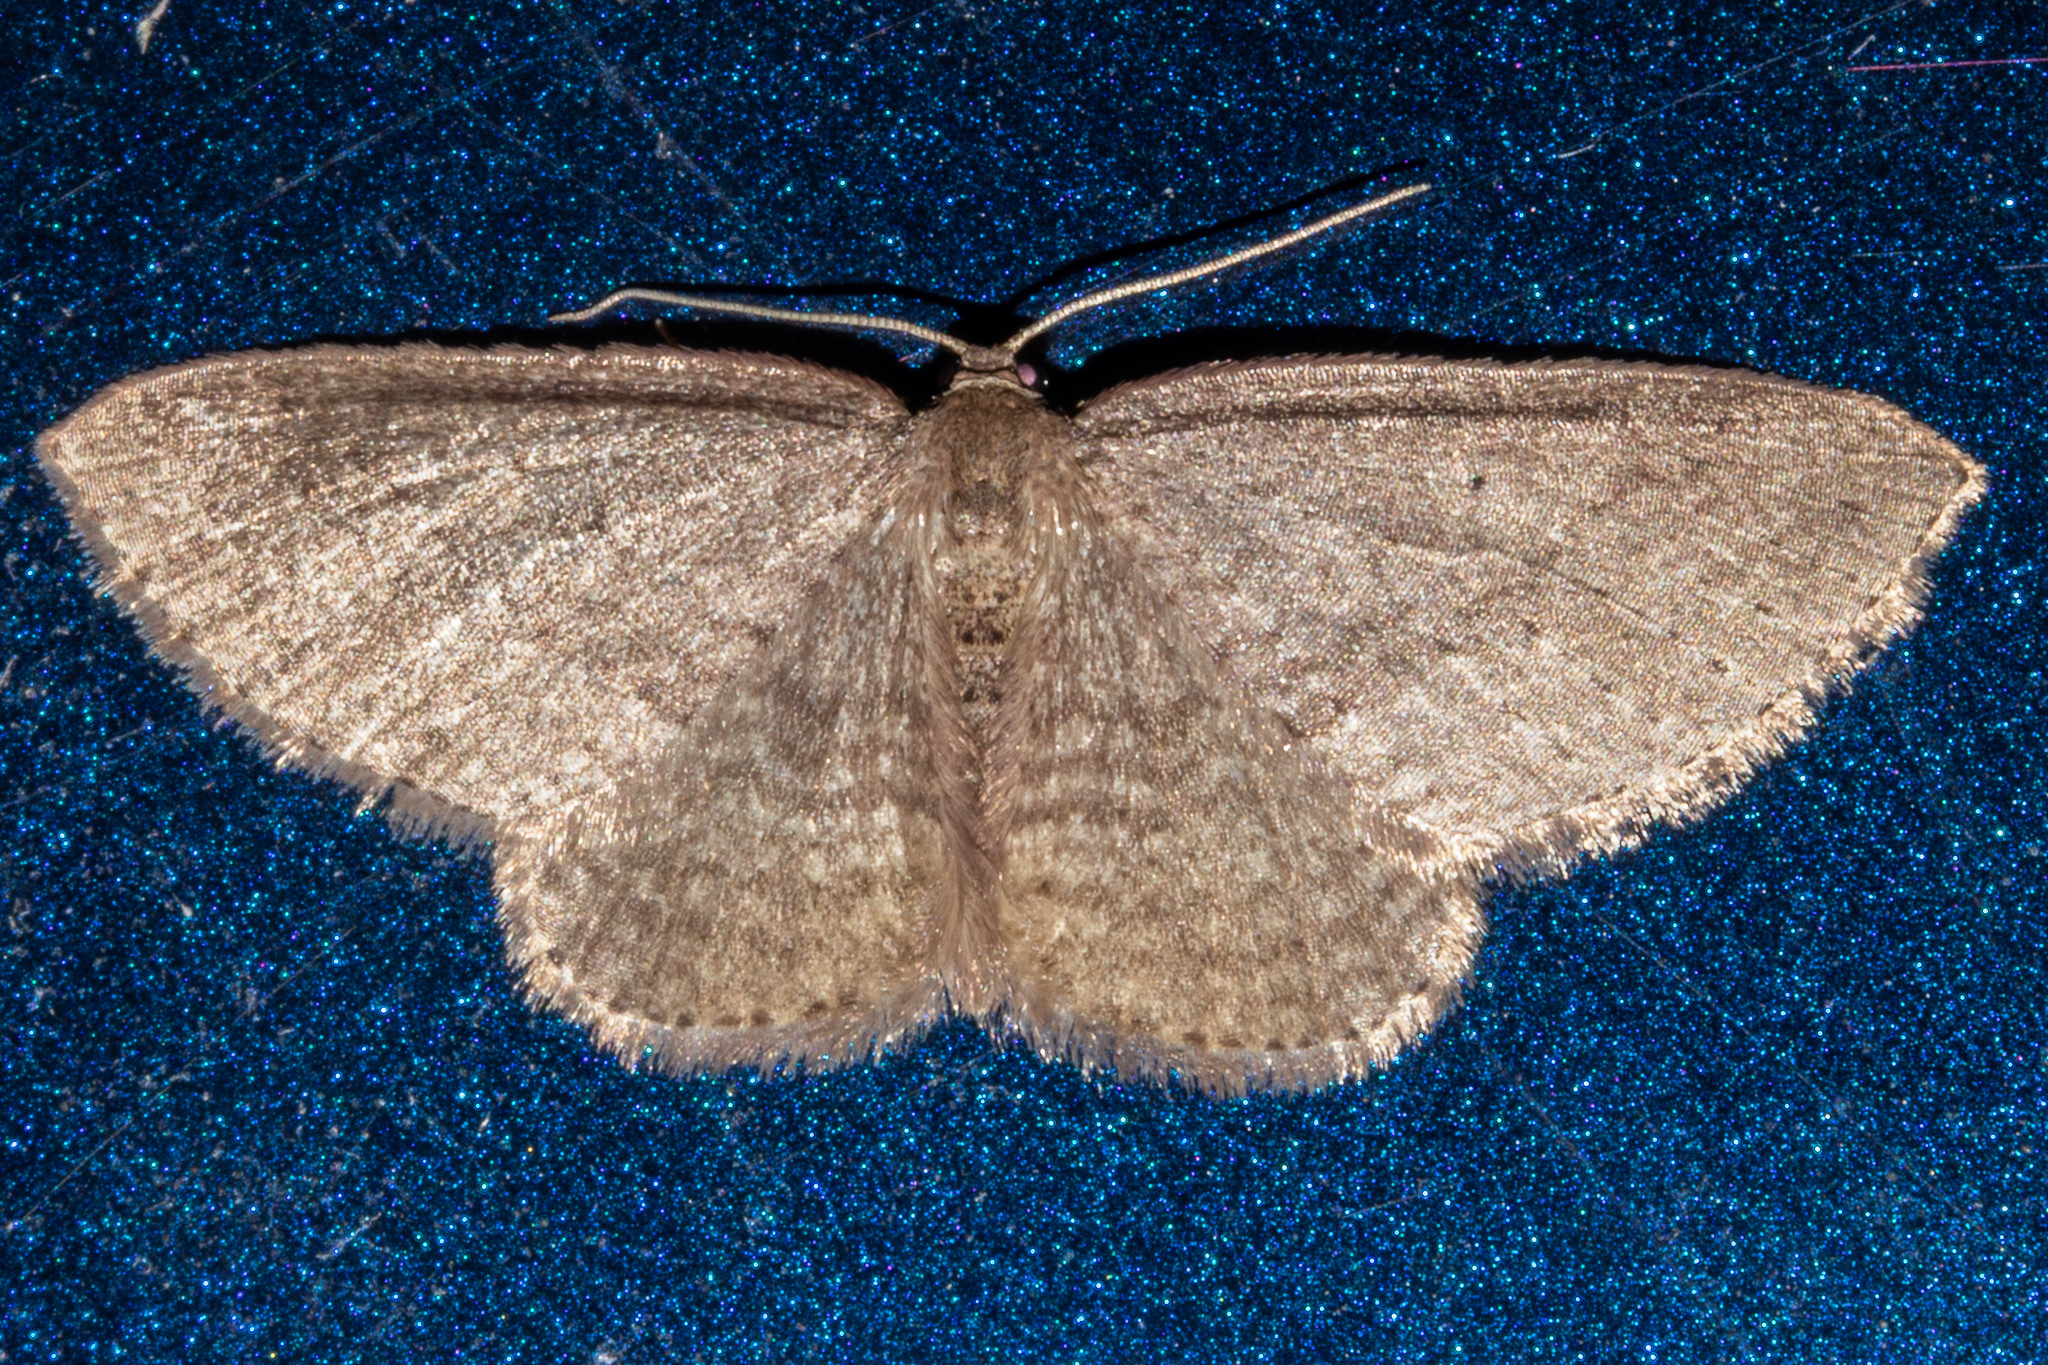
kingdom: Animalia
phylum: Arthropoda
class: Insecta
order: Lepidoptera
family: Geometridae
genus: Poecilasthena
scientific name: Poecilasthena schistaria
